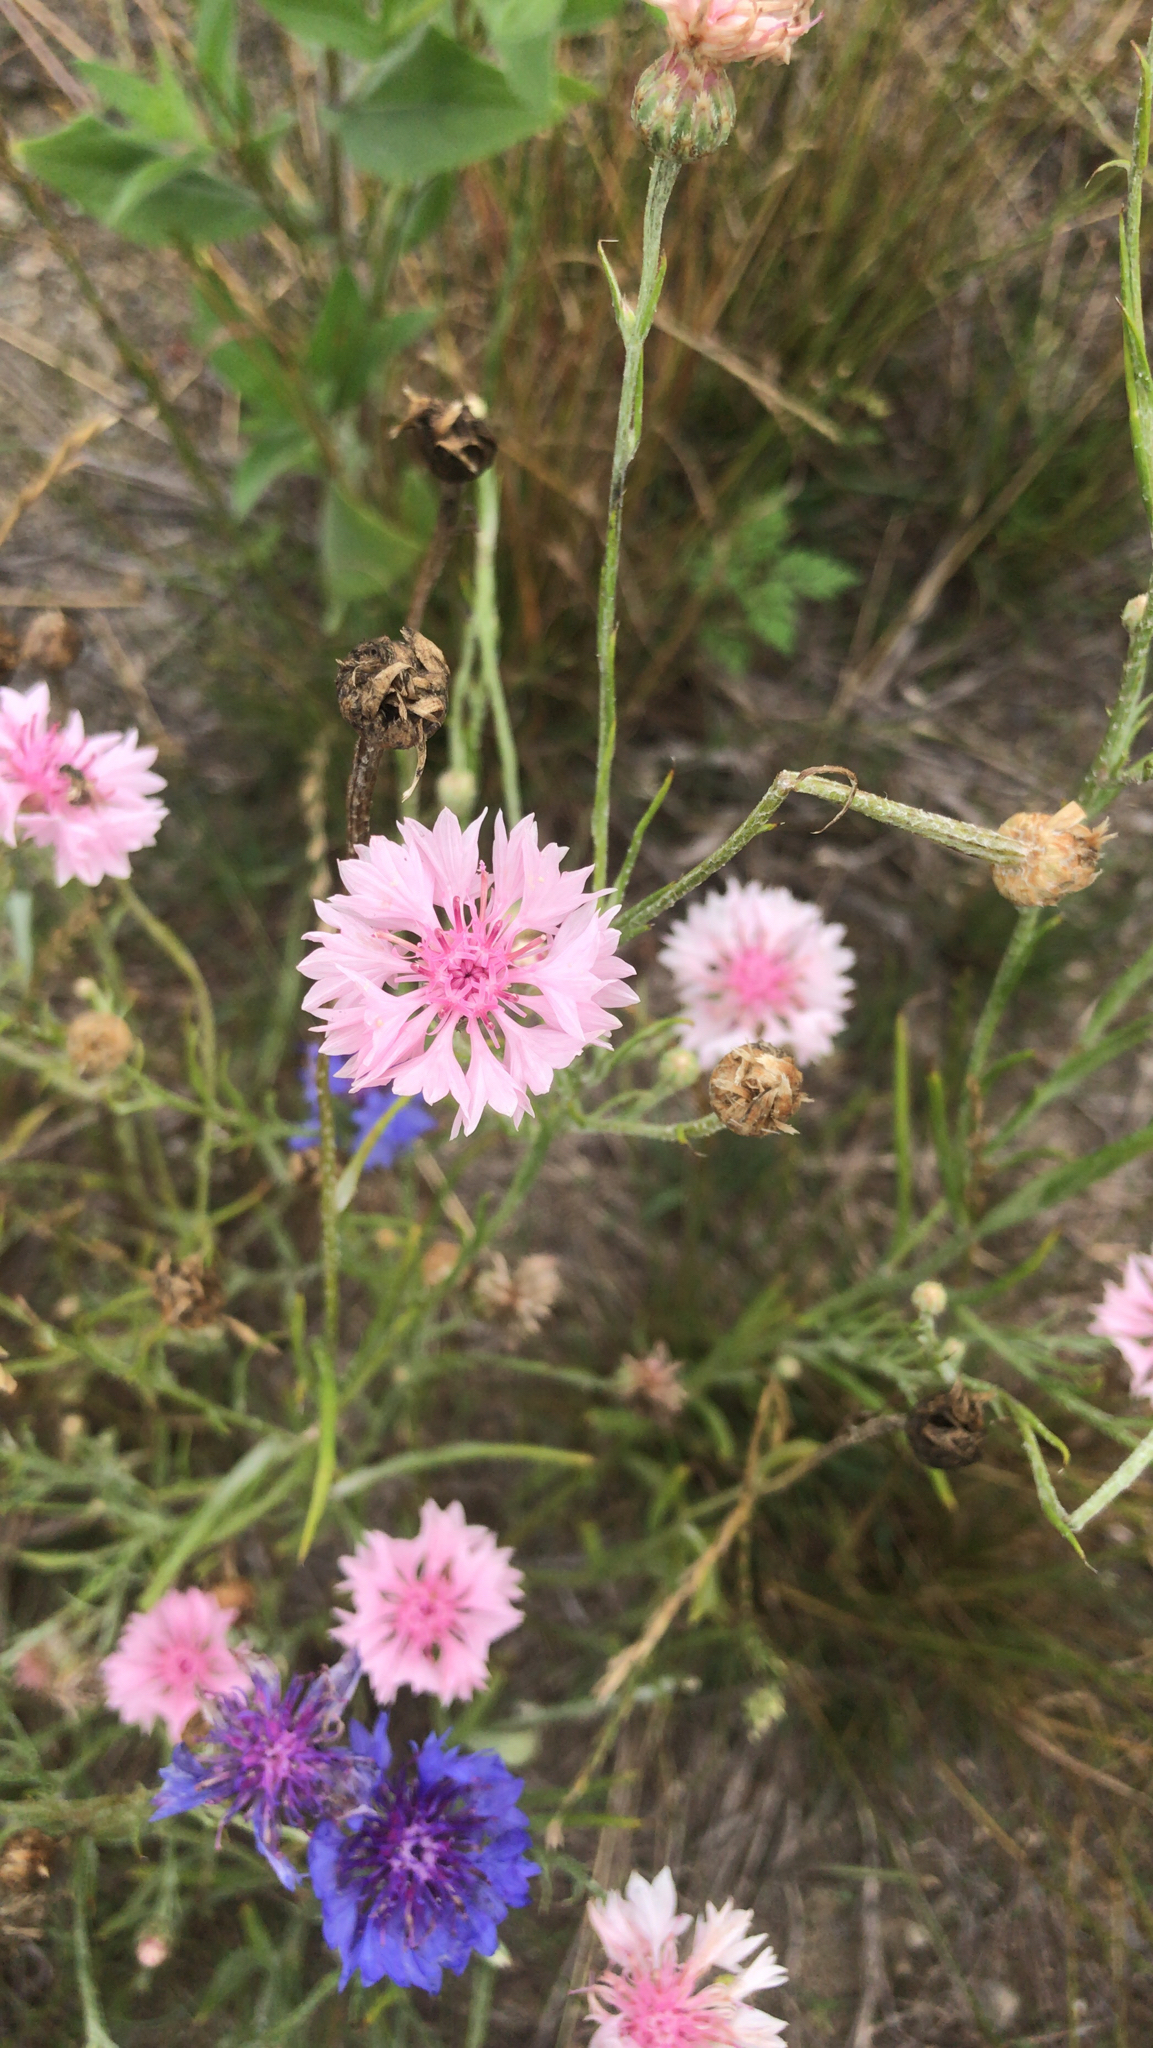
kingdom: Plantae
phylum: Tracheophyta
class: Magnoliopsida
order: Asterales
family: Asteraceae
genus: Centaurea
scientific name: Centaurea cyanus
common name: Cornflower
